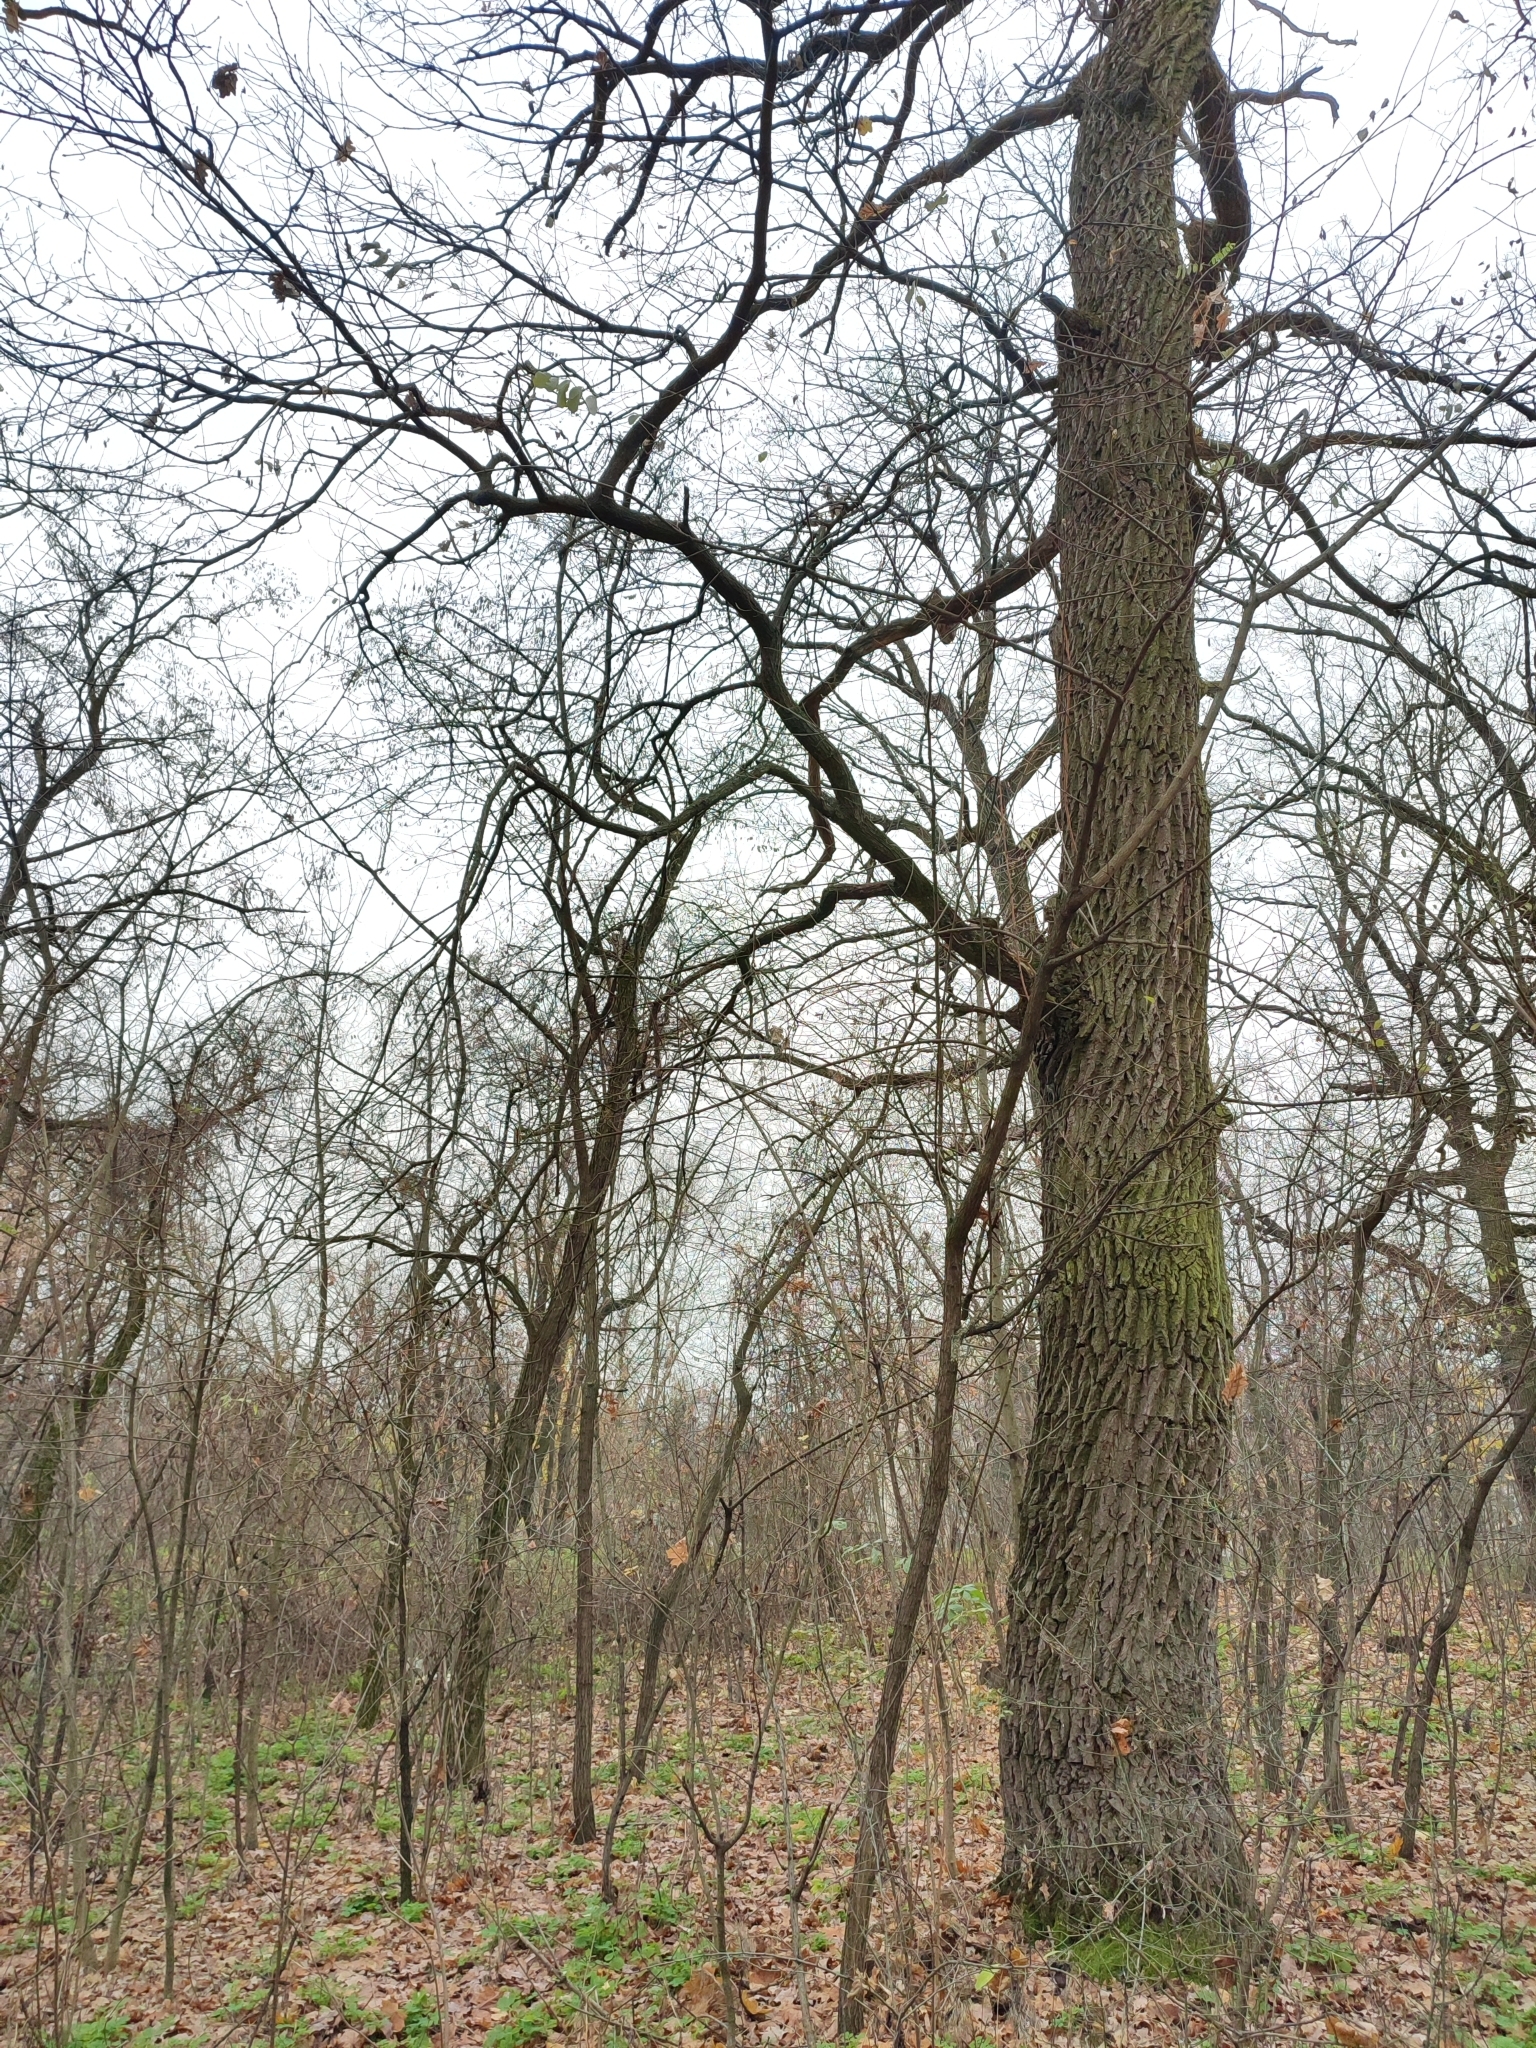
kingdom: Plantae
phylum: Tracheophyta
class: Magnoliopsida
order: Fagales
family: Fagaceae
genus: Quercus
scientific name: Quercus robur
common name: Pedunculate oak
